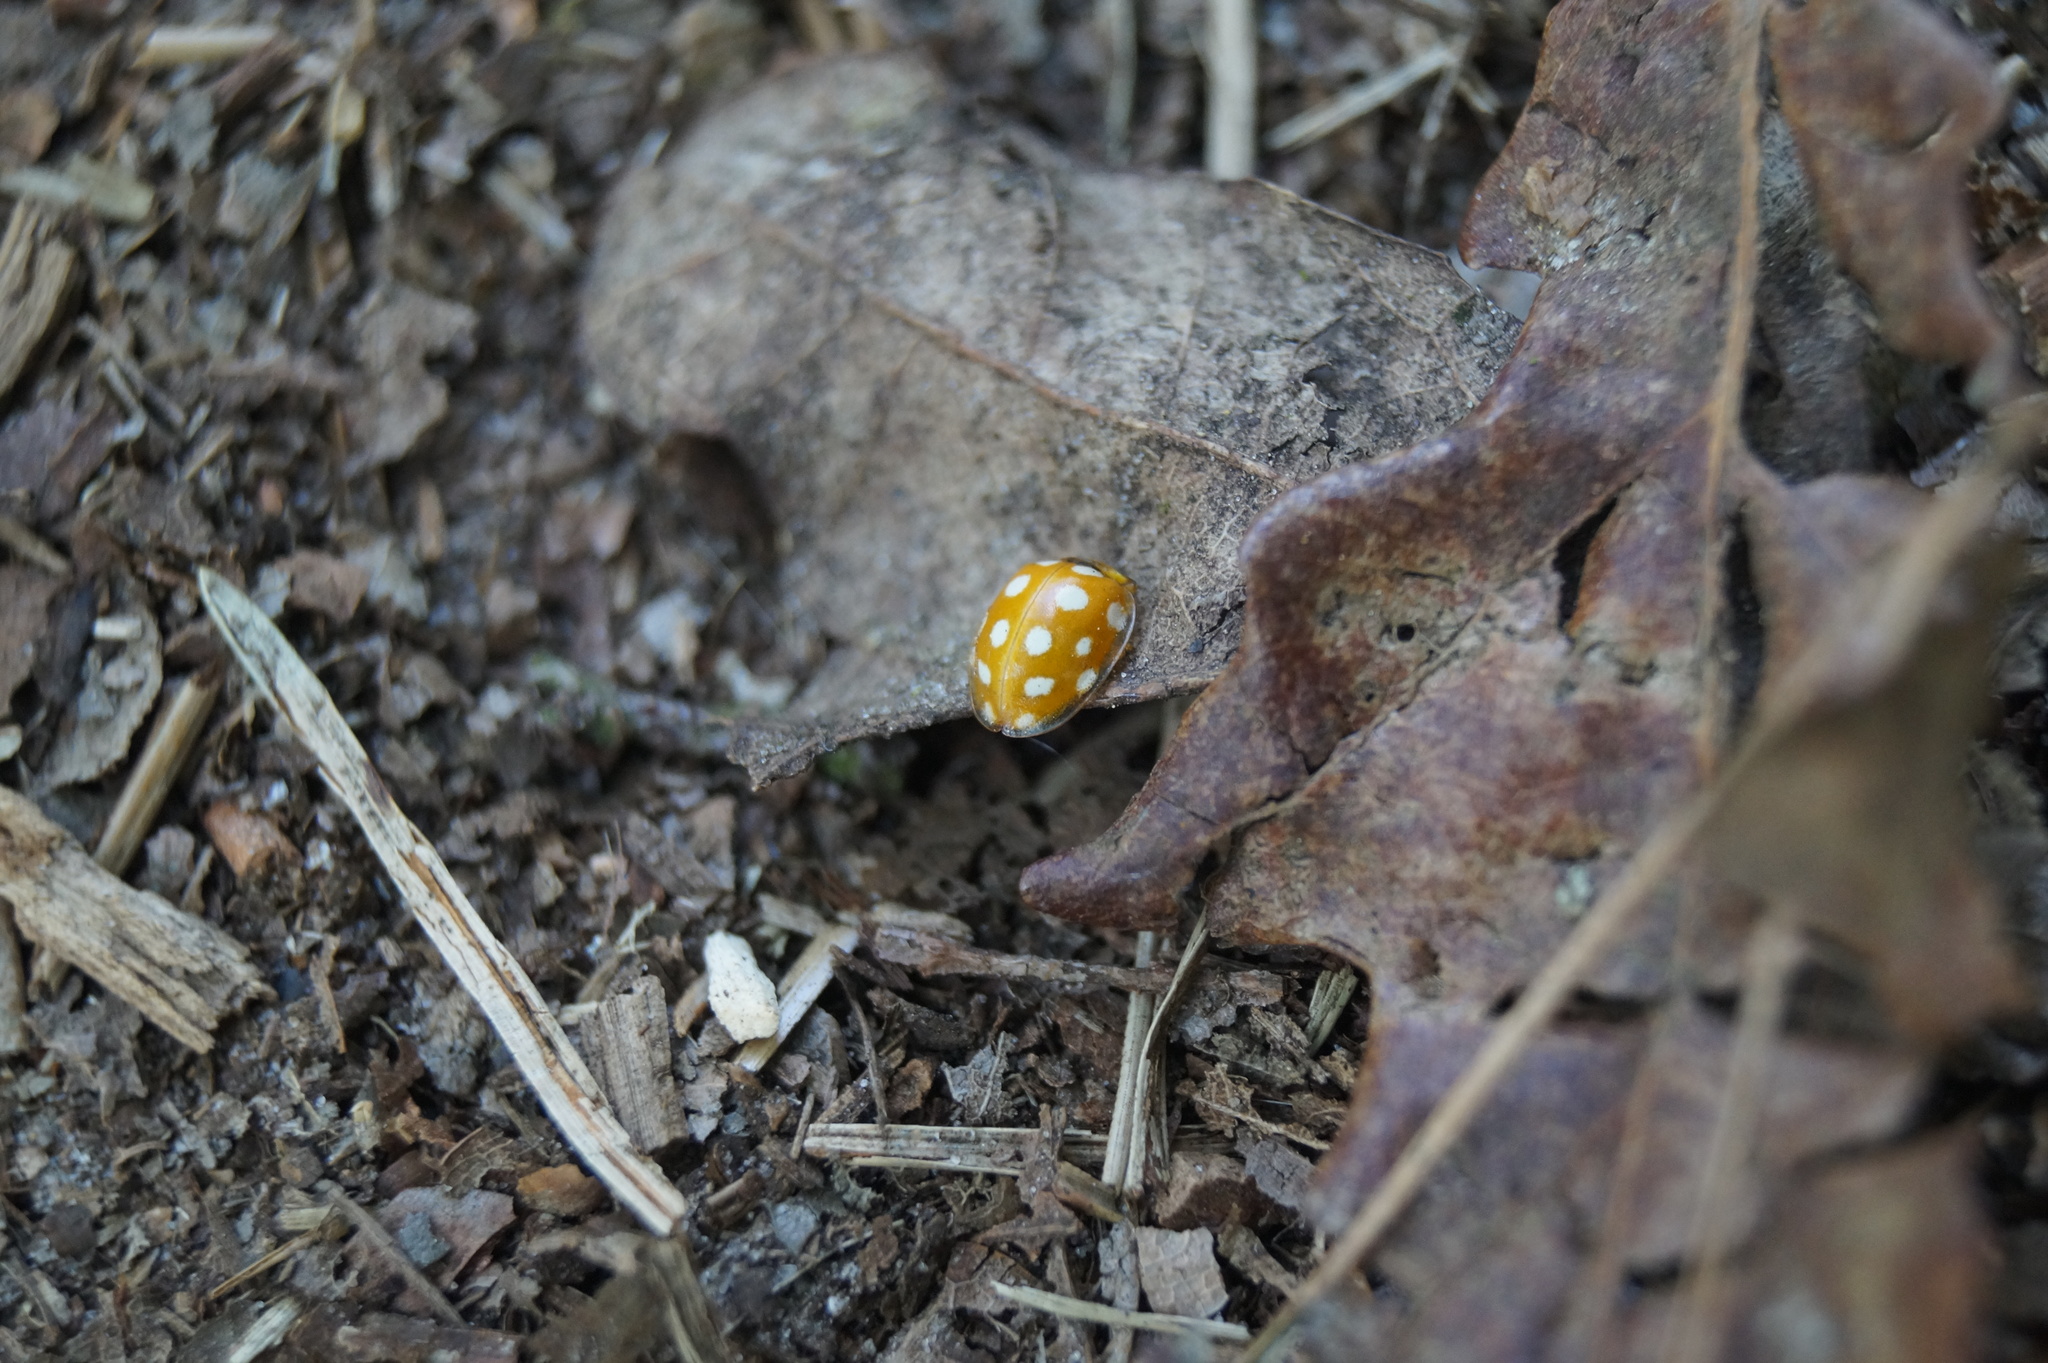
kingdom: Animalia
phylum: Arthropoda
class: Insecta
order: Coleoptera
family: Coccinellidae
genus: Halyzia
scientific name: Halyzia sedecimguttata
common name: Orange ladybird
